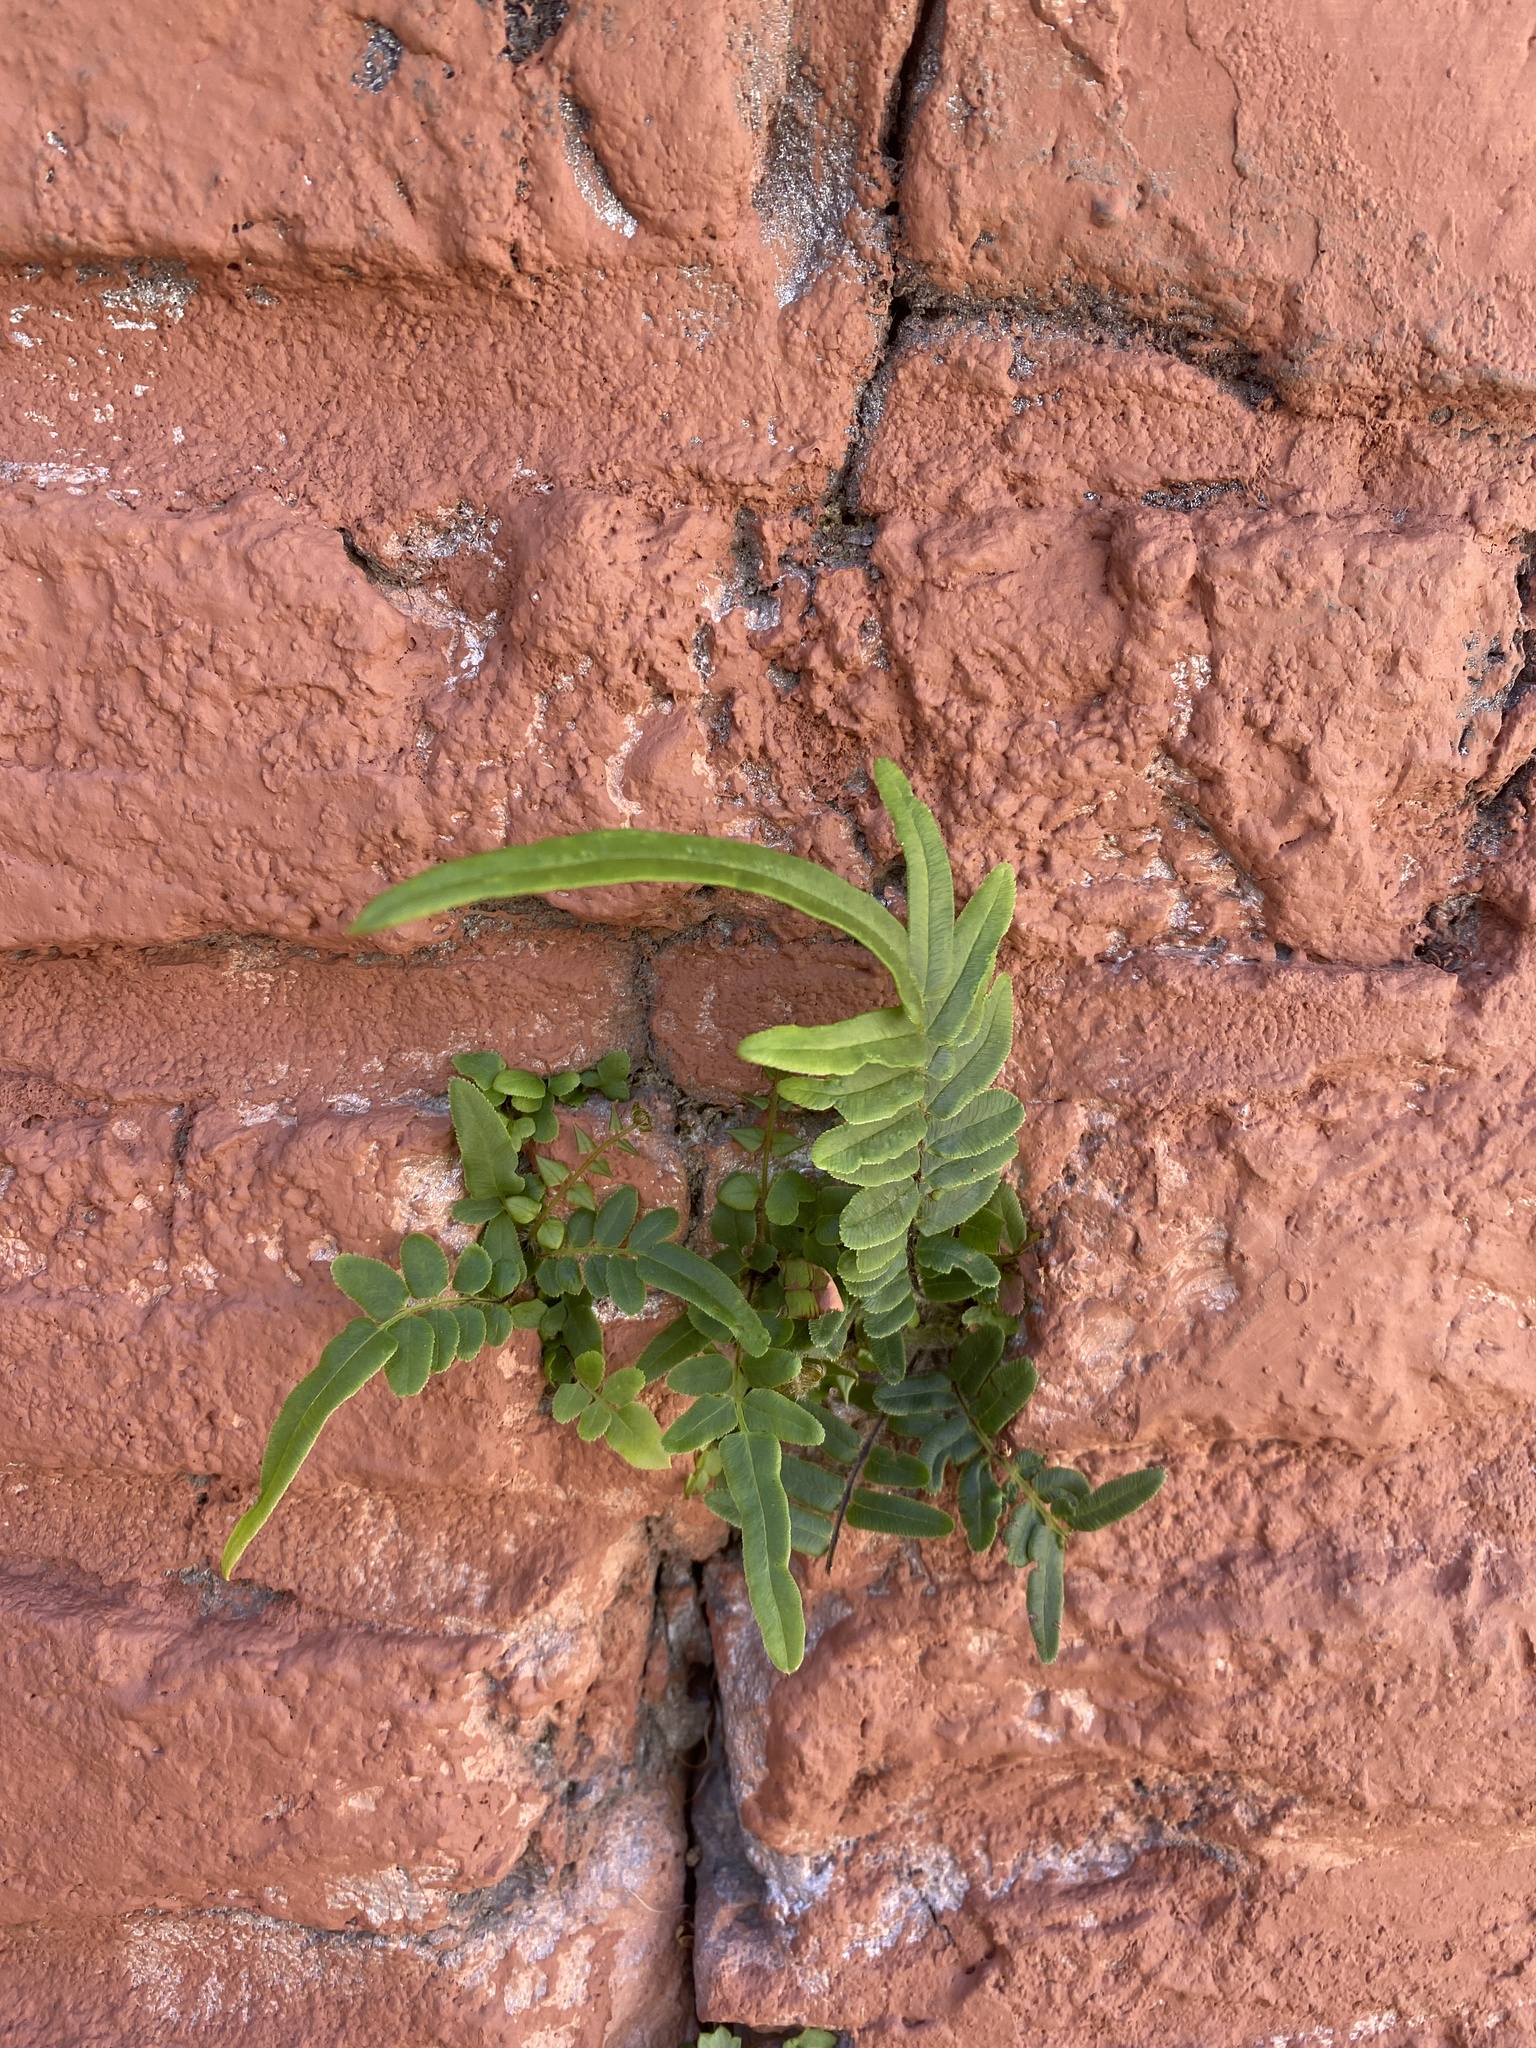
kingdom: Plantae
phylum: Tracheophyta
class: Polypodiopsida
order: Polypodiales
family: Pteridaceae
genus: Pteris
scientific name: Pteris vittata
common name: Ladder brake
